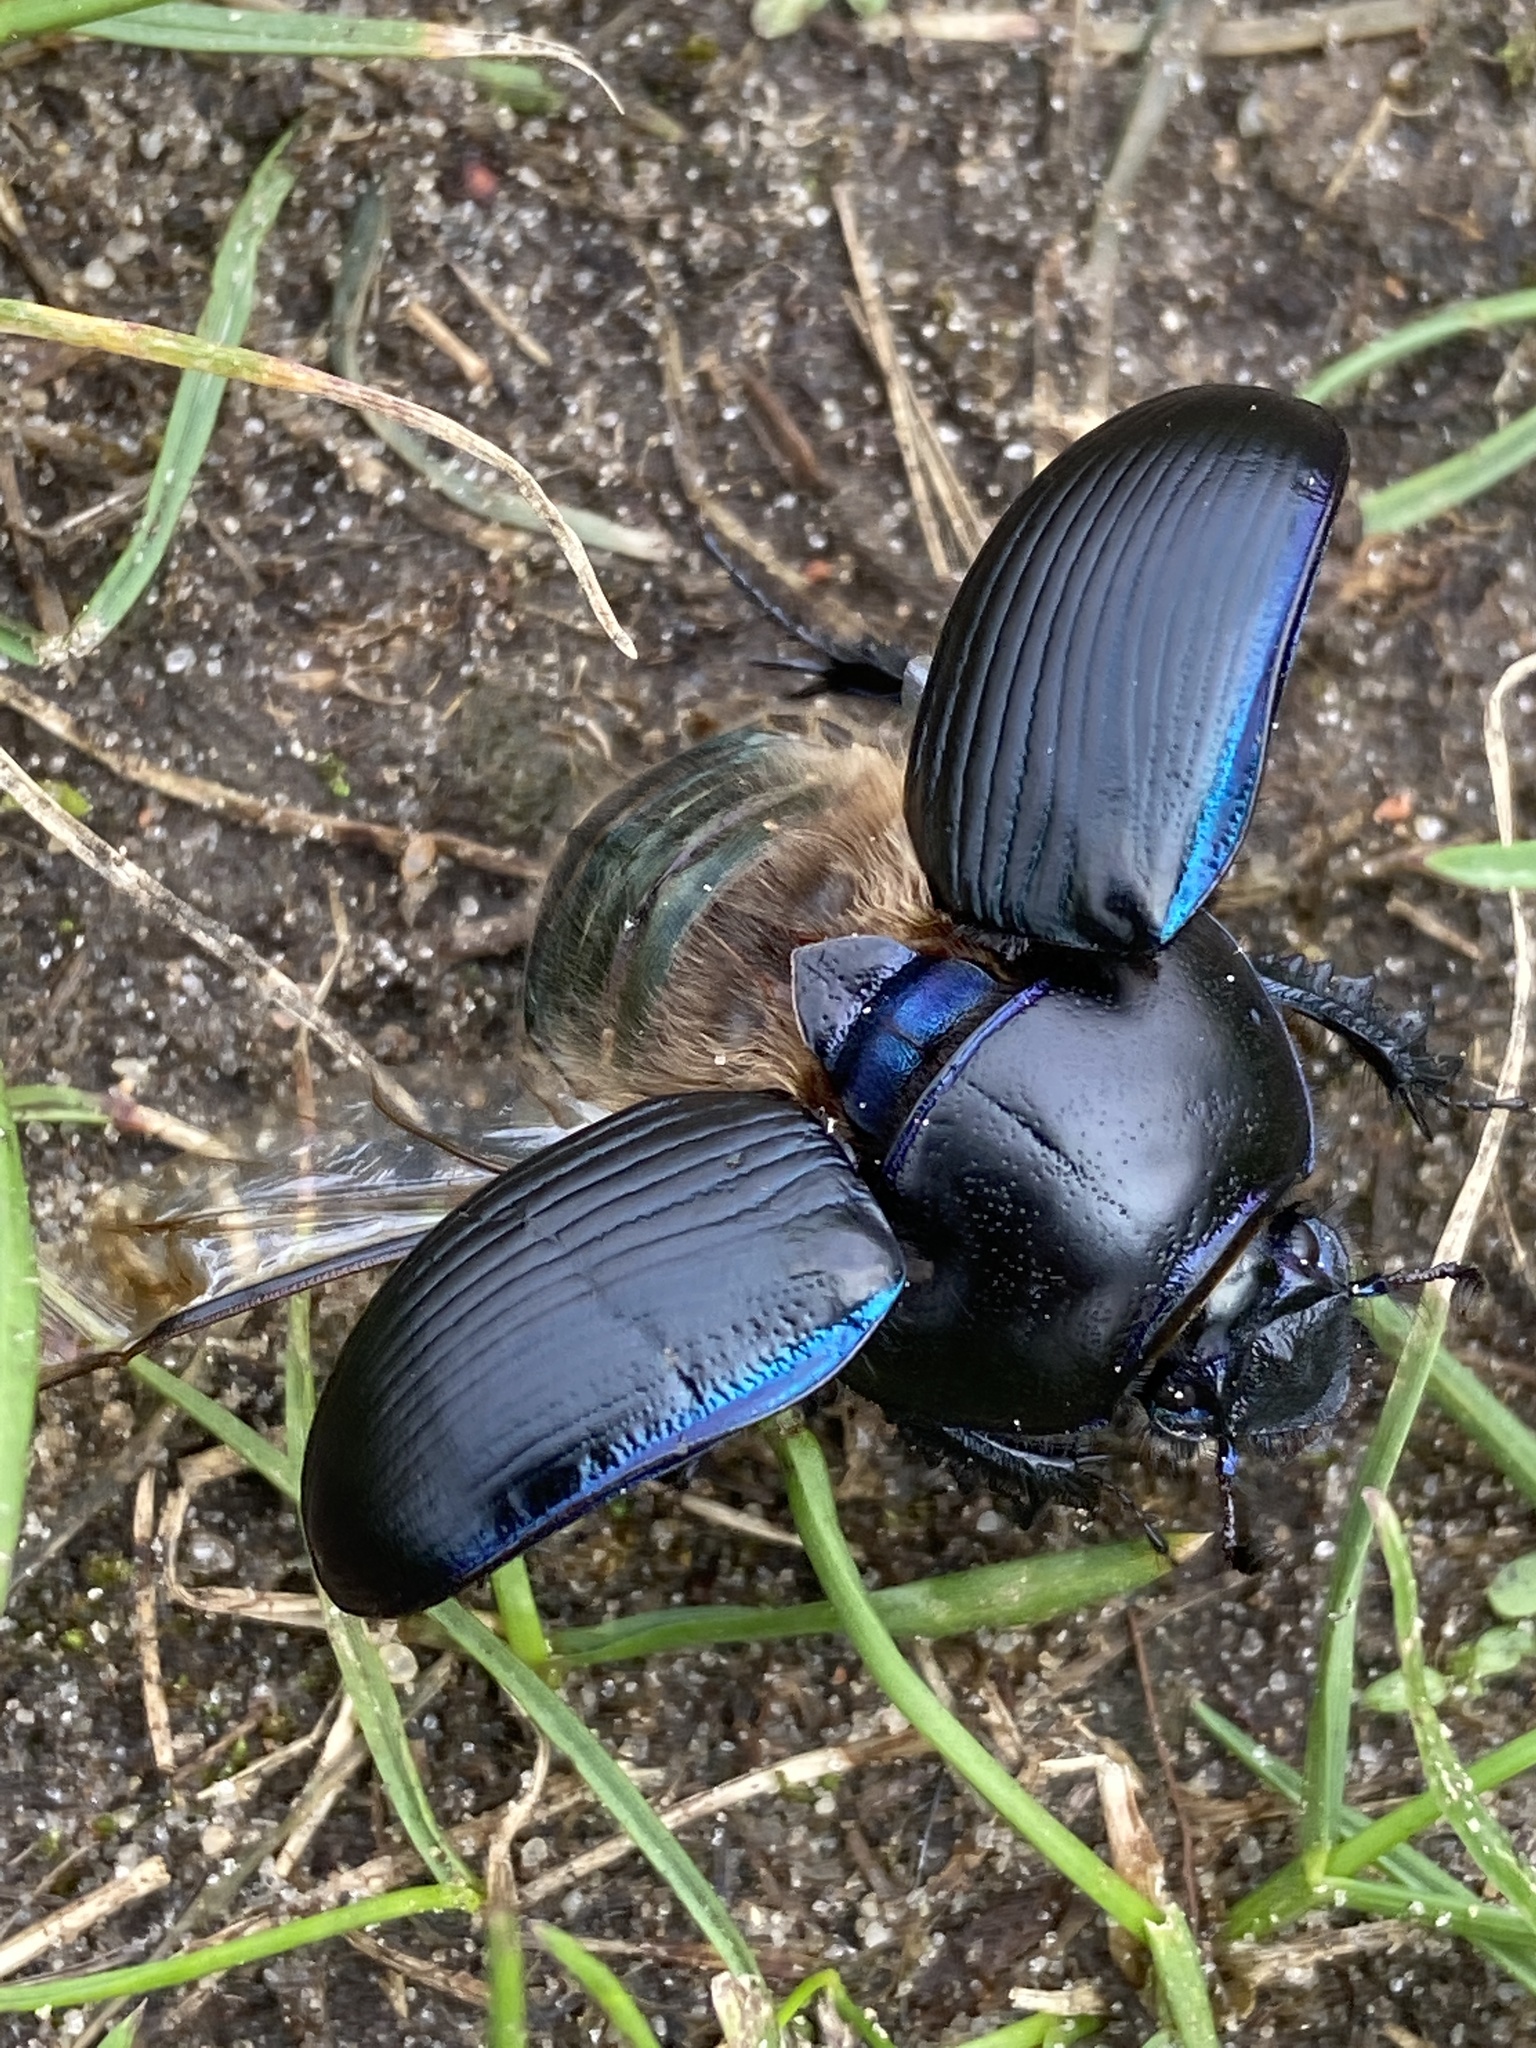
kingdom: Animalia
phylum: Arthropoda
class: Insecta
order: Coleoptera
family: Geotrupidae
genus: Anoplotrupes
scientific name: Anoplotrupes stercorosus
